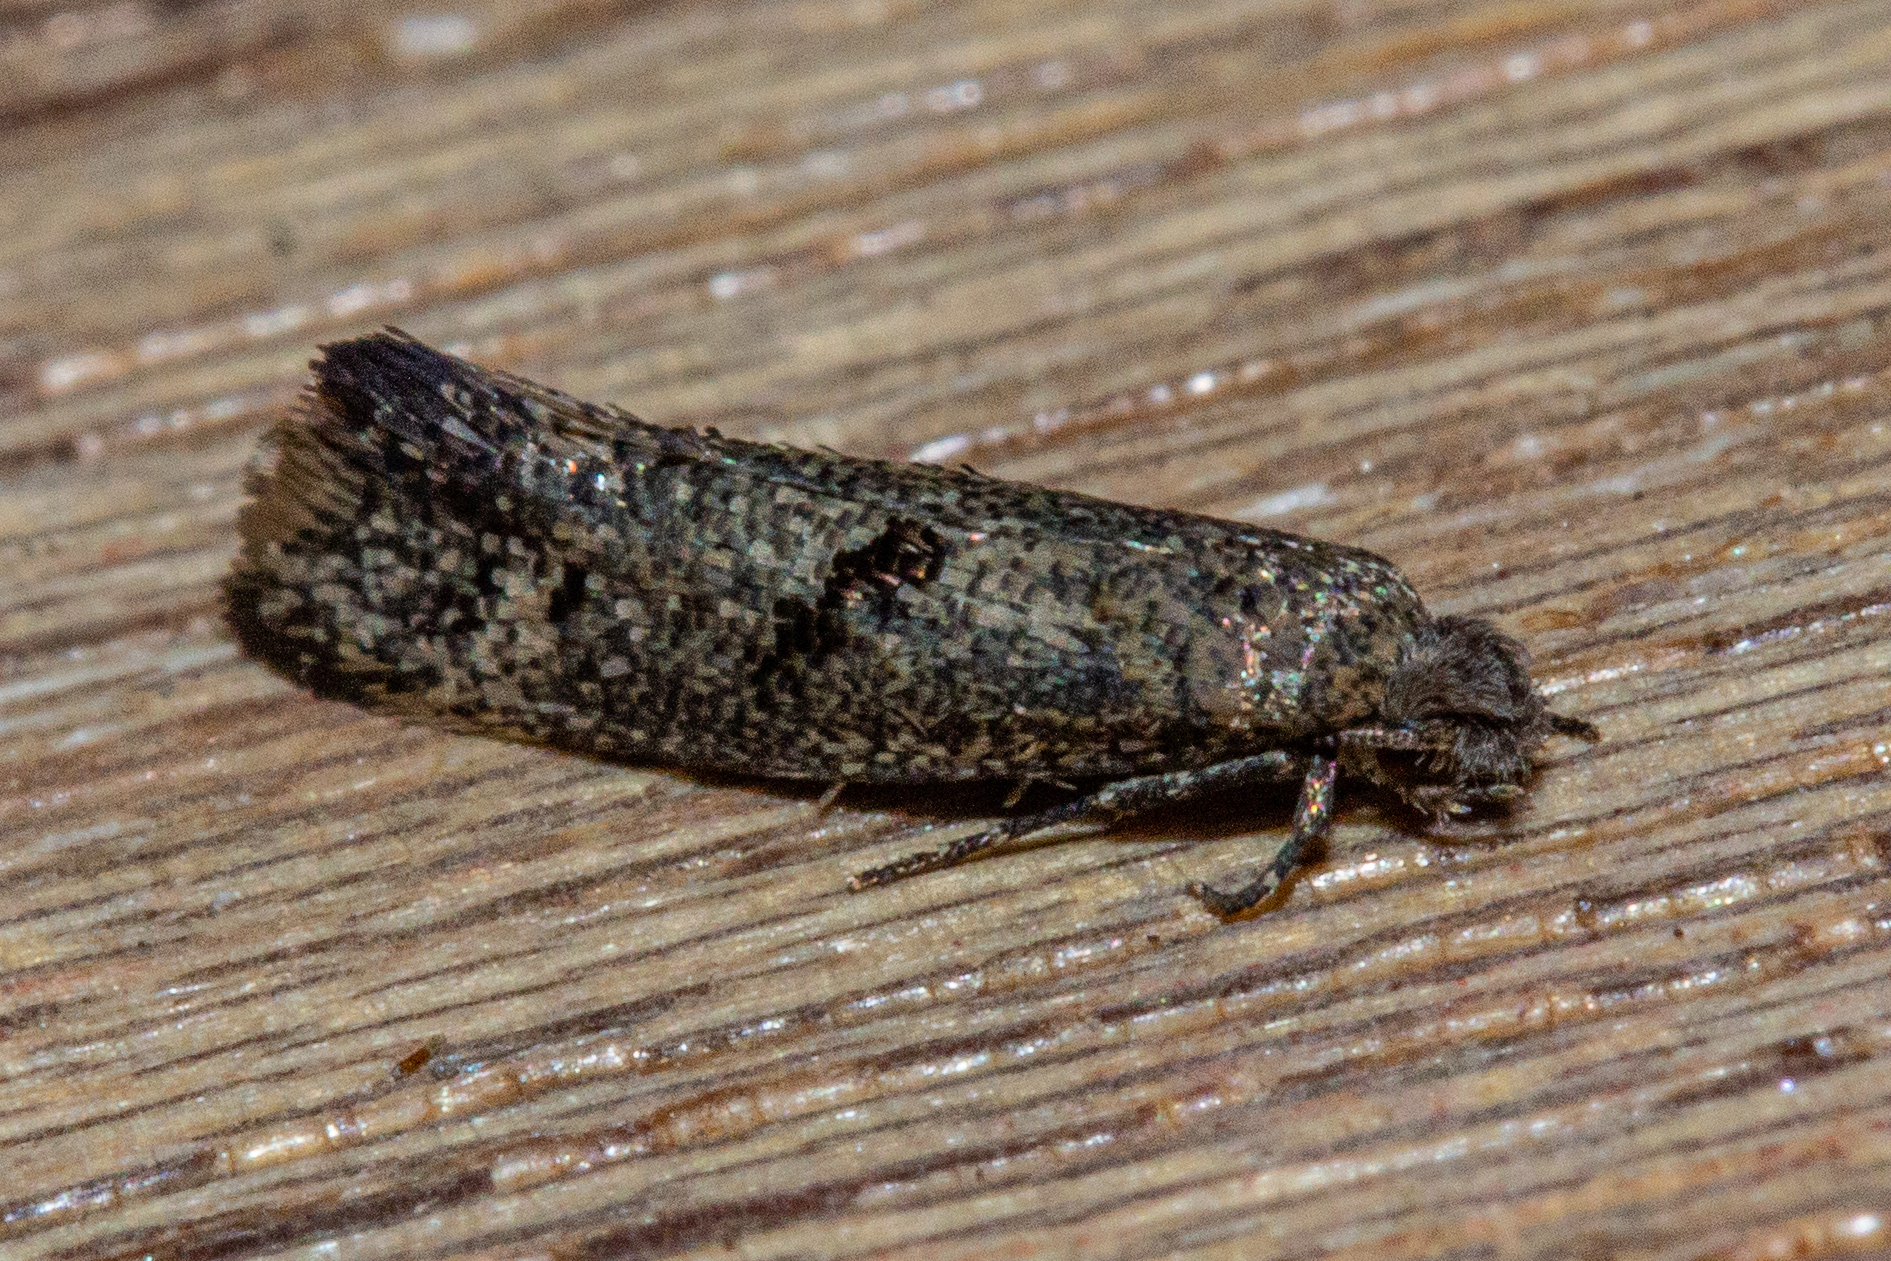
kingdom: Animalia
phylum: Arthropoda
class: Insecta
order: Lepidoptera
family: Tineidae
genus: Tinea
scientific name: Tinea mochlota
